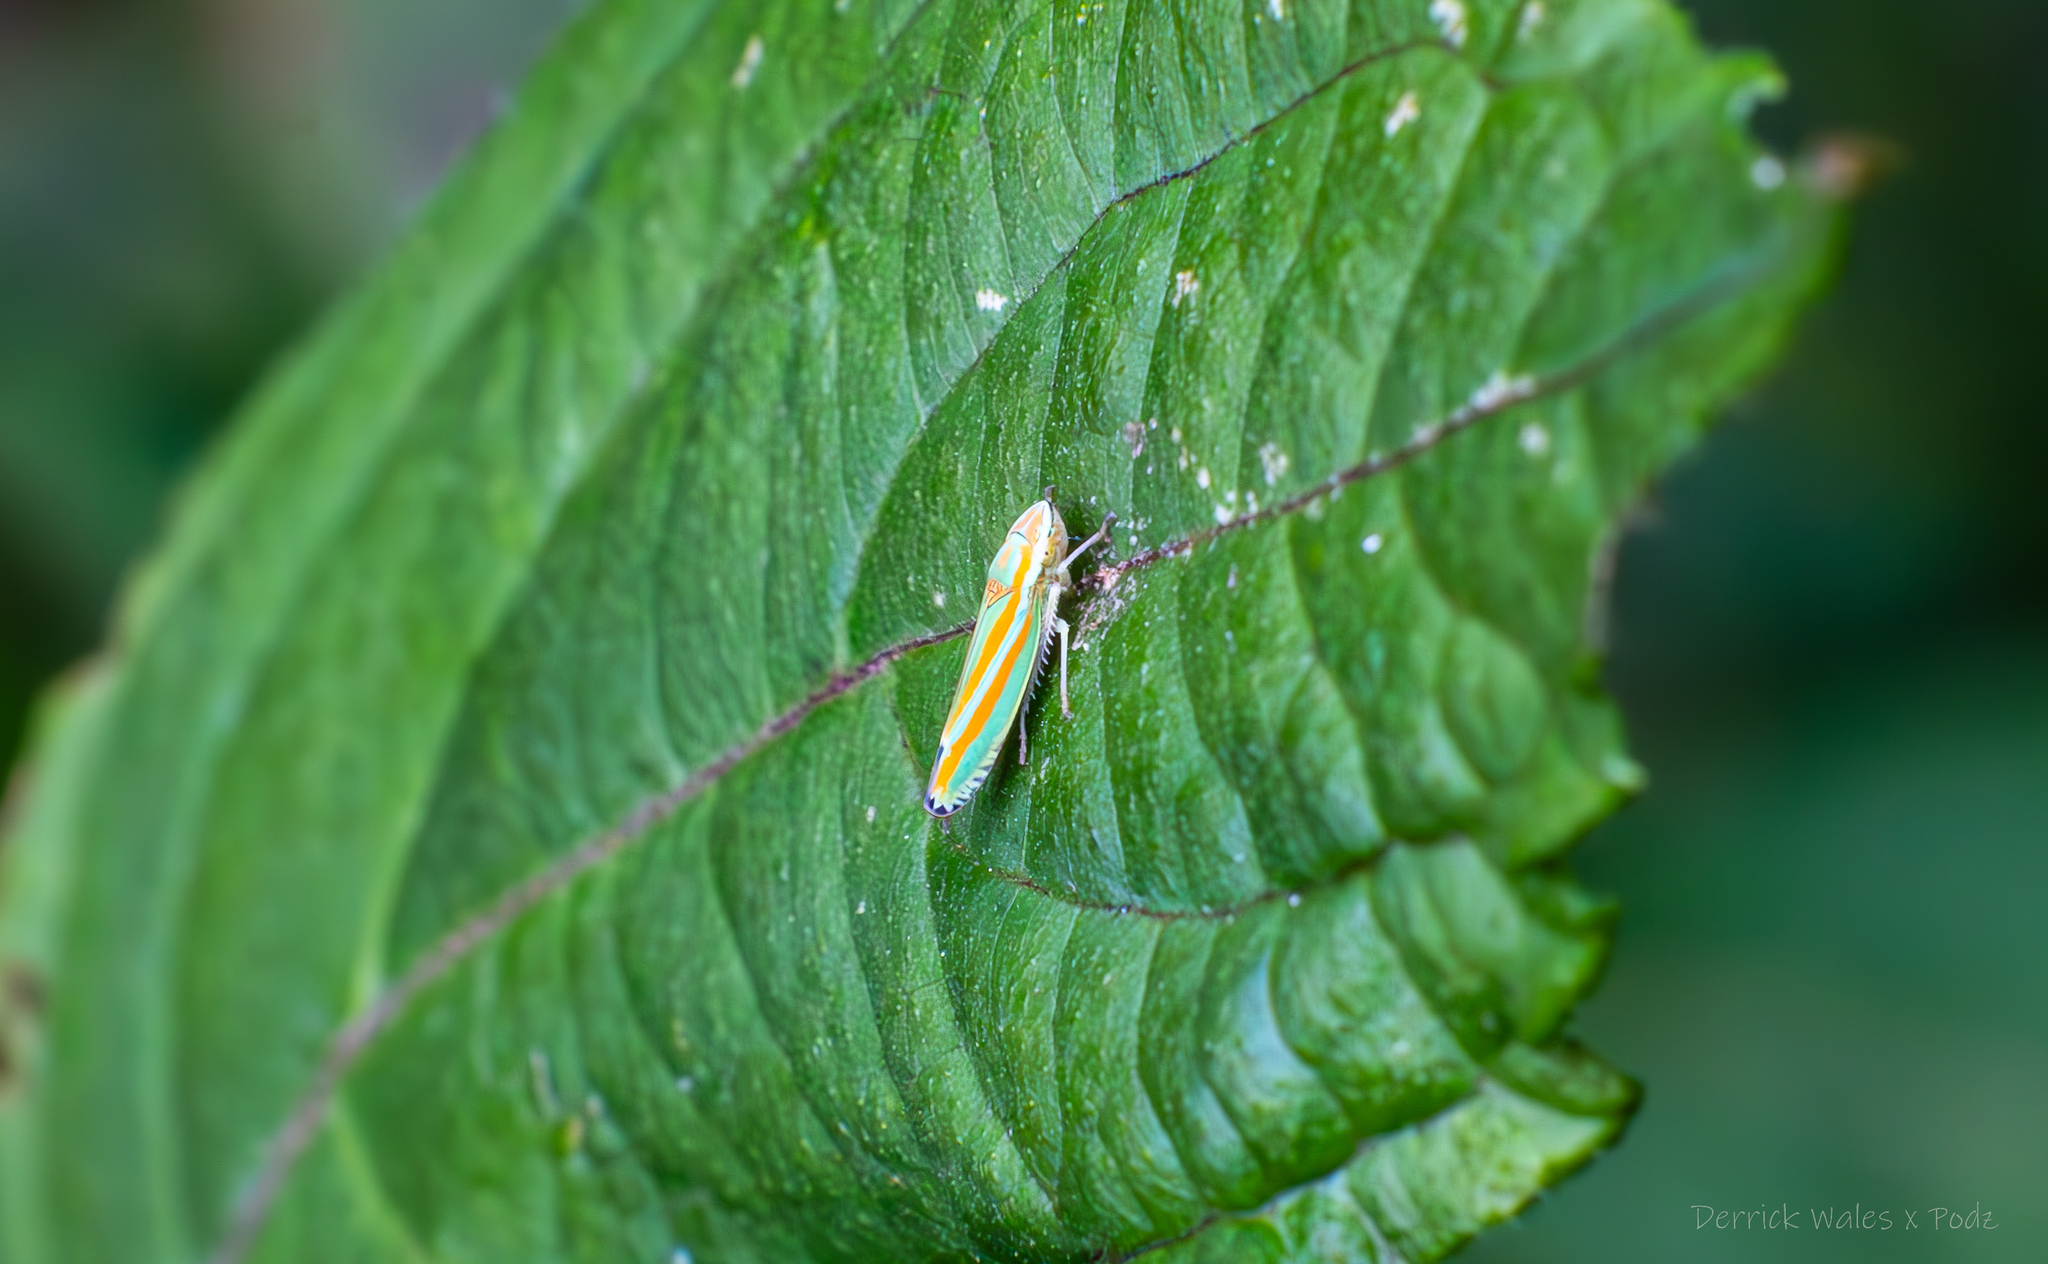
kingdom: Animalia
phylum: Arthropoda
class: Insecta
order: Hemiptera
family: Cicadellidae
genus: Graphocephala
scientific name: Graphocephala versuta
